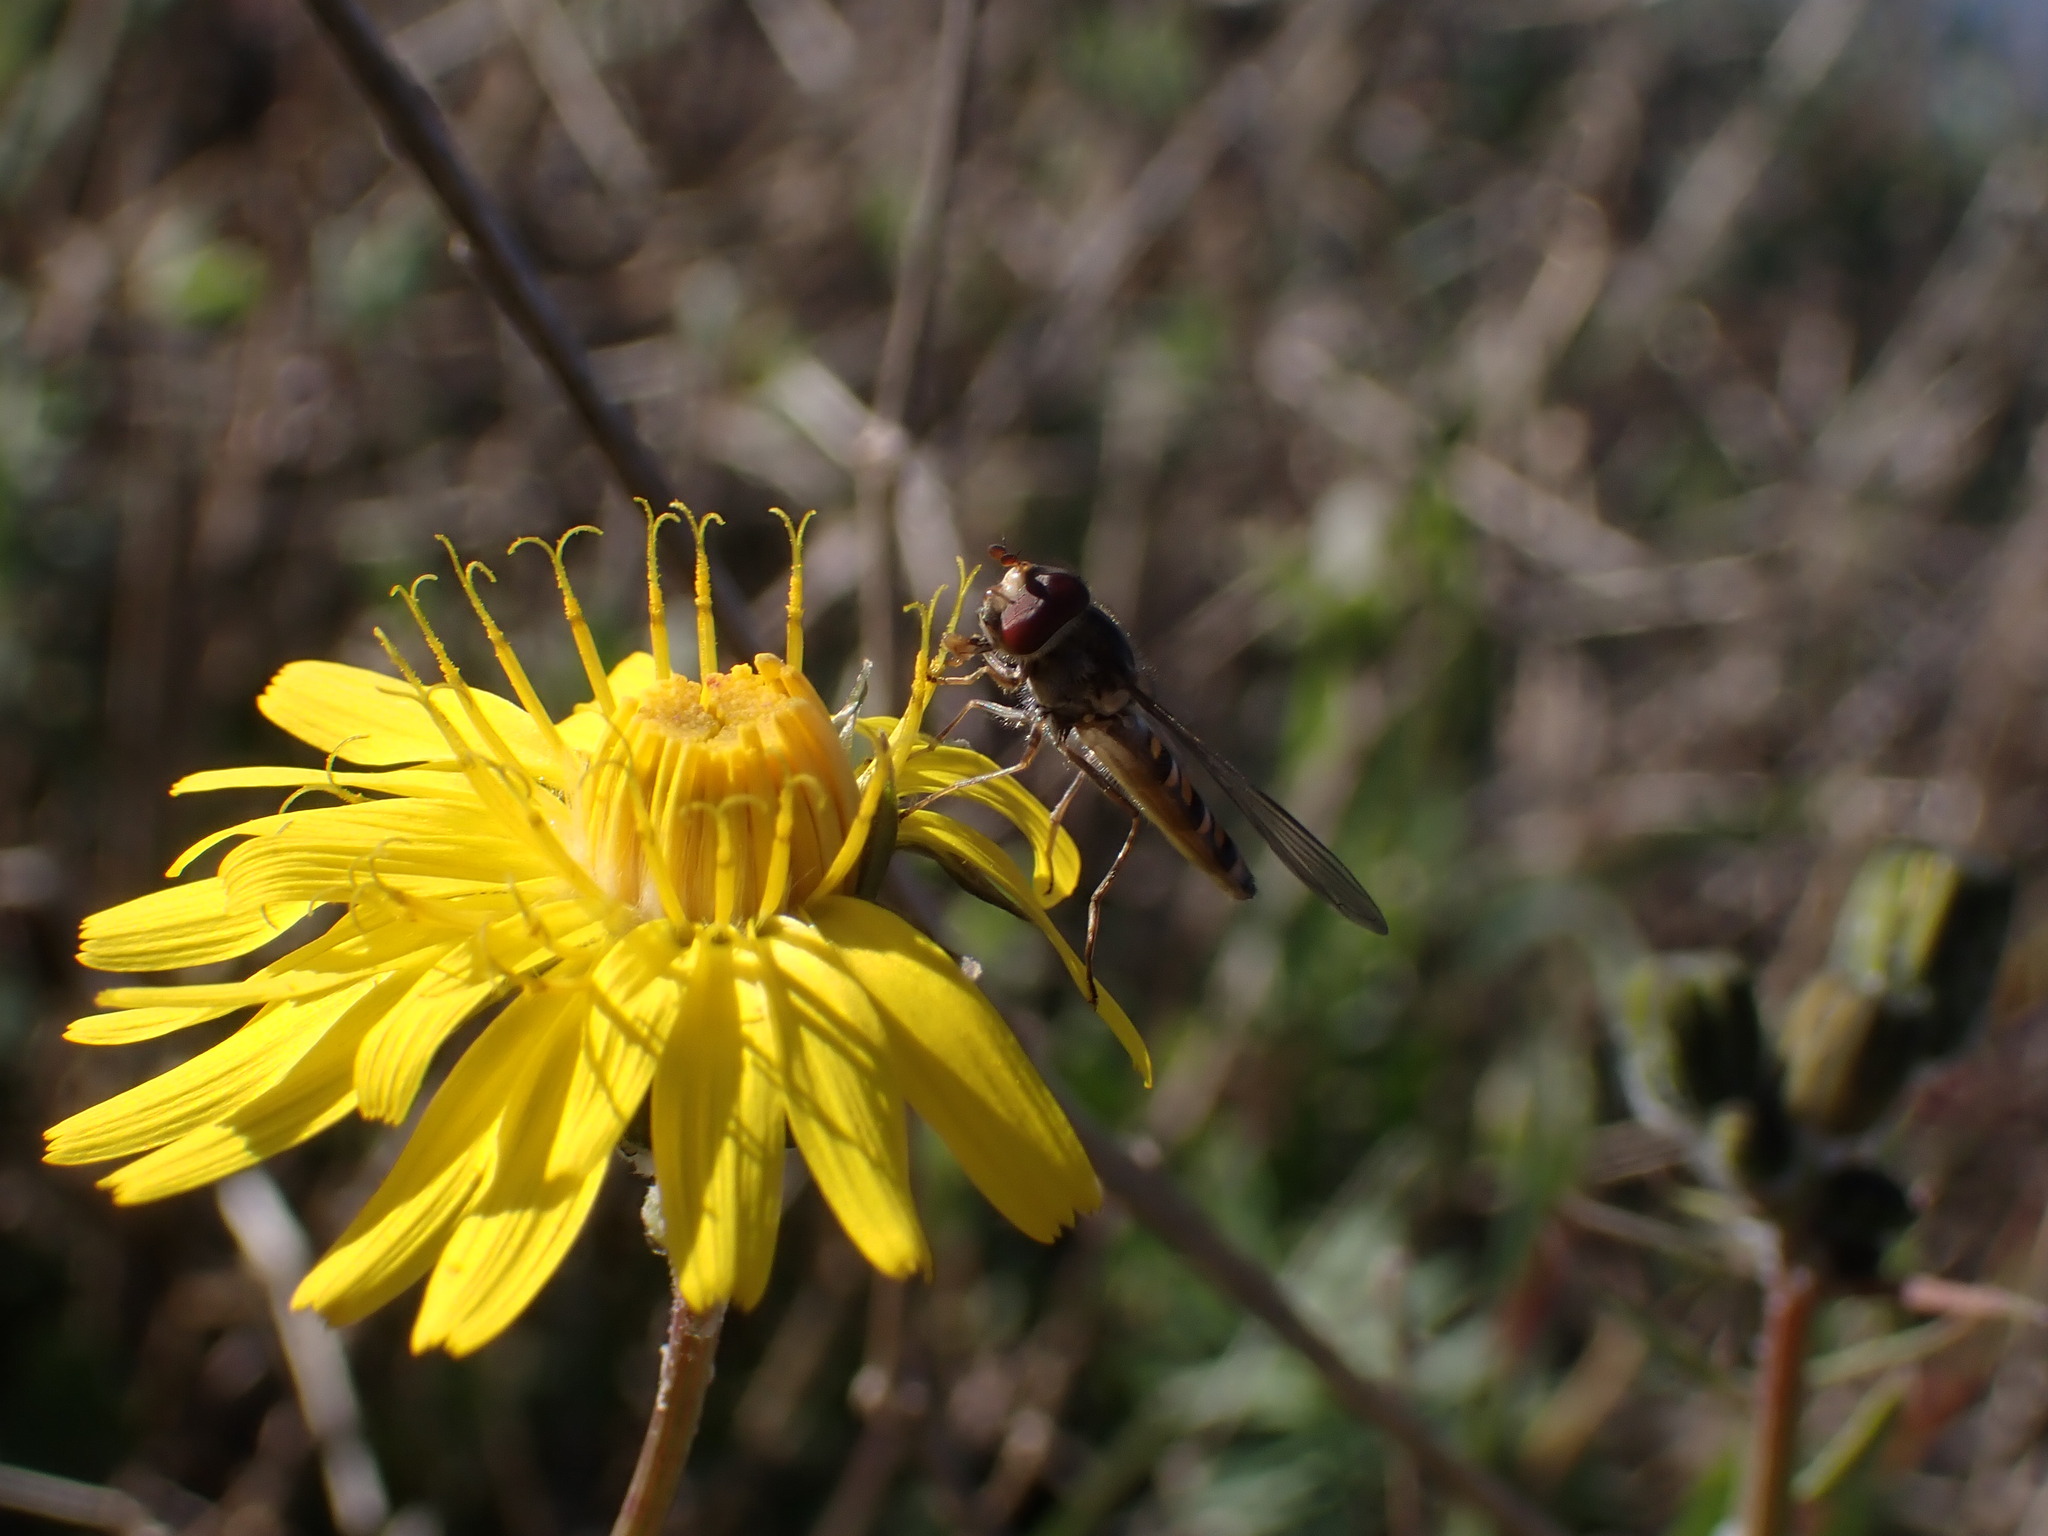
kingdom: Animalia
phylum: Arthropoda
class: Insecta
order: Diptera
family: Syrphidae
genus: Episyrphus
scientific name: Episyrphus balteatus
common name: Marmalade hoverfly
